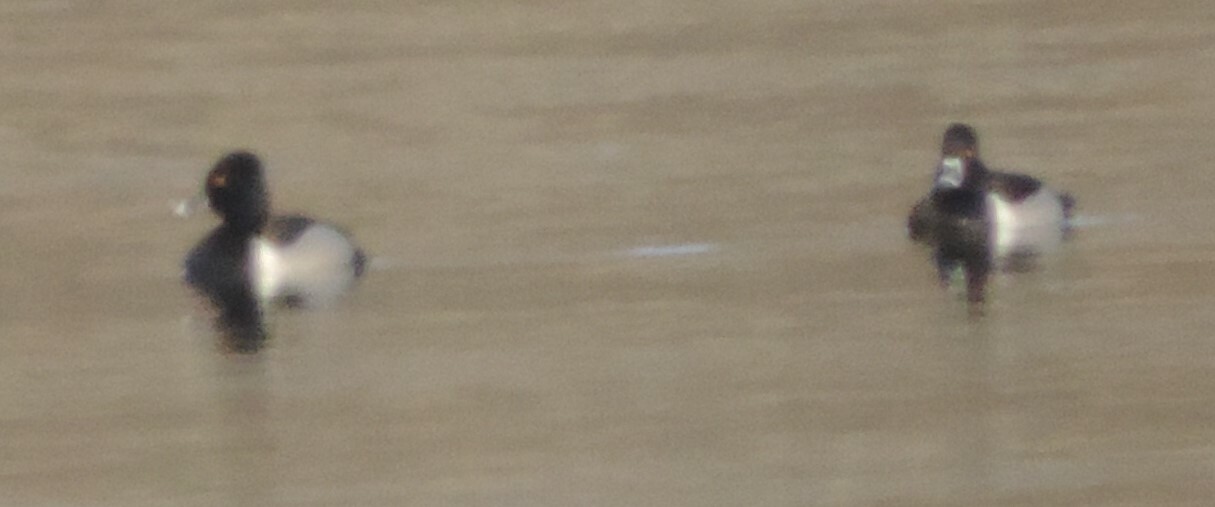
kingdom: Animalia
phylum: Chordata
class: Aves
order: Anseriformes
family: Anatidae
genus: Aythya
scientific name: Aythya collaris
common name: Ring-necked duck
